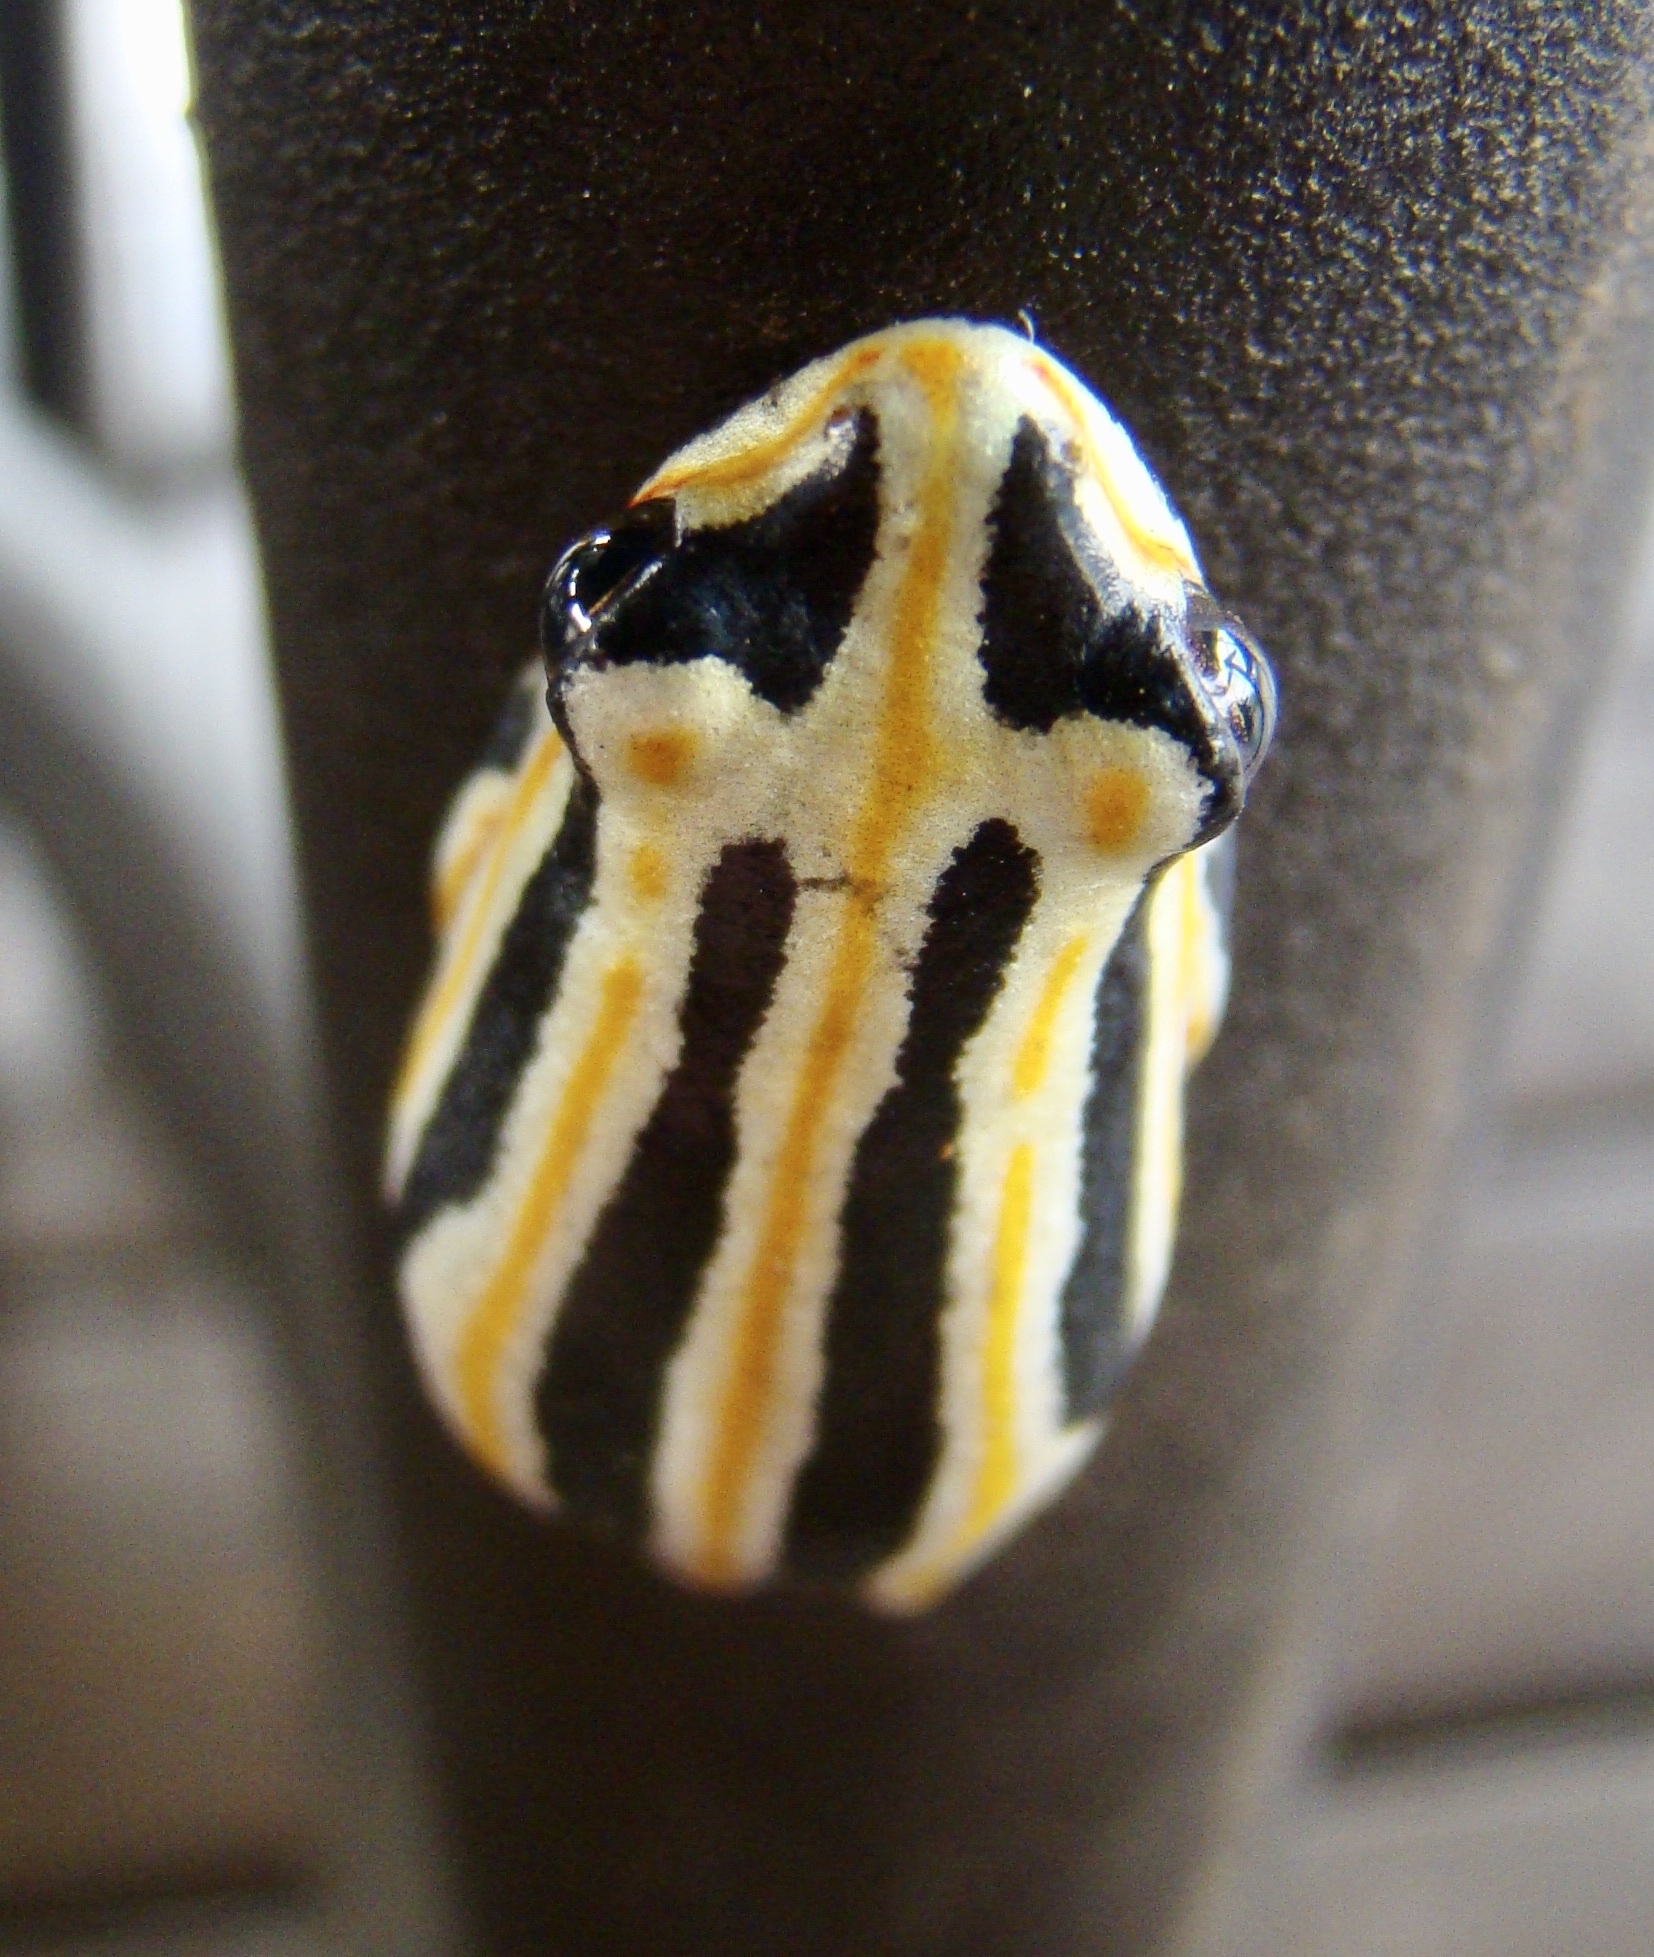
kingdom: Animalia
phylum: Chordata
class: Amphibia
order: Anura
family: Hyperoliidae
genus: Hyperolius
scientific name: Hyperolius marmoratus
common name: Painted reed frog
